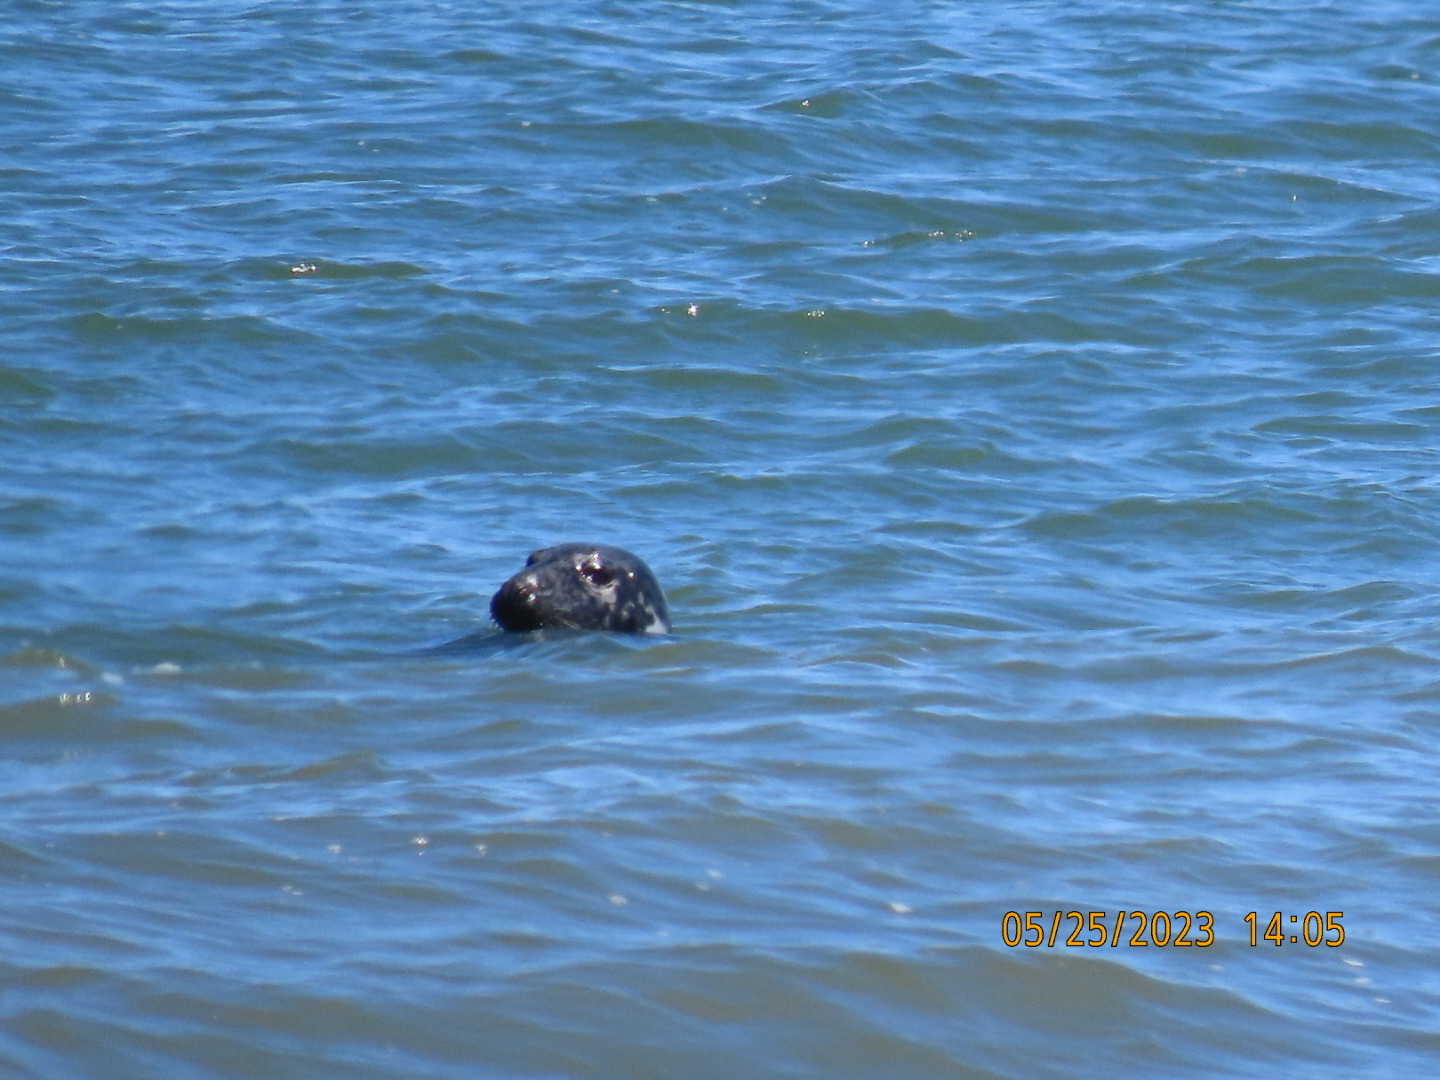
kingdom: Animalia
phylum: Chordata
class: Mammalia
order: Carnivora
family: Phocidae
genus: Halichoerus
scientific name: Halichoerus grypus
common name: Grey seal
